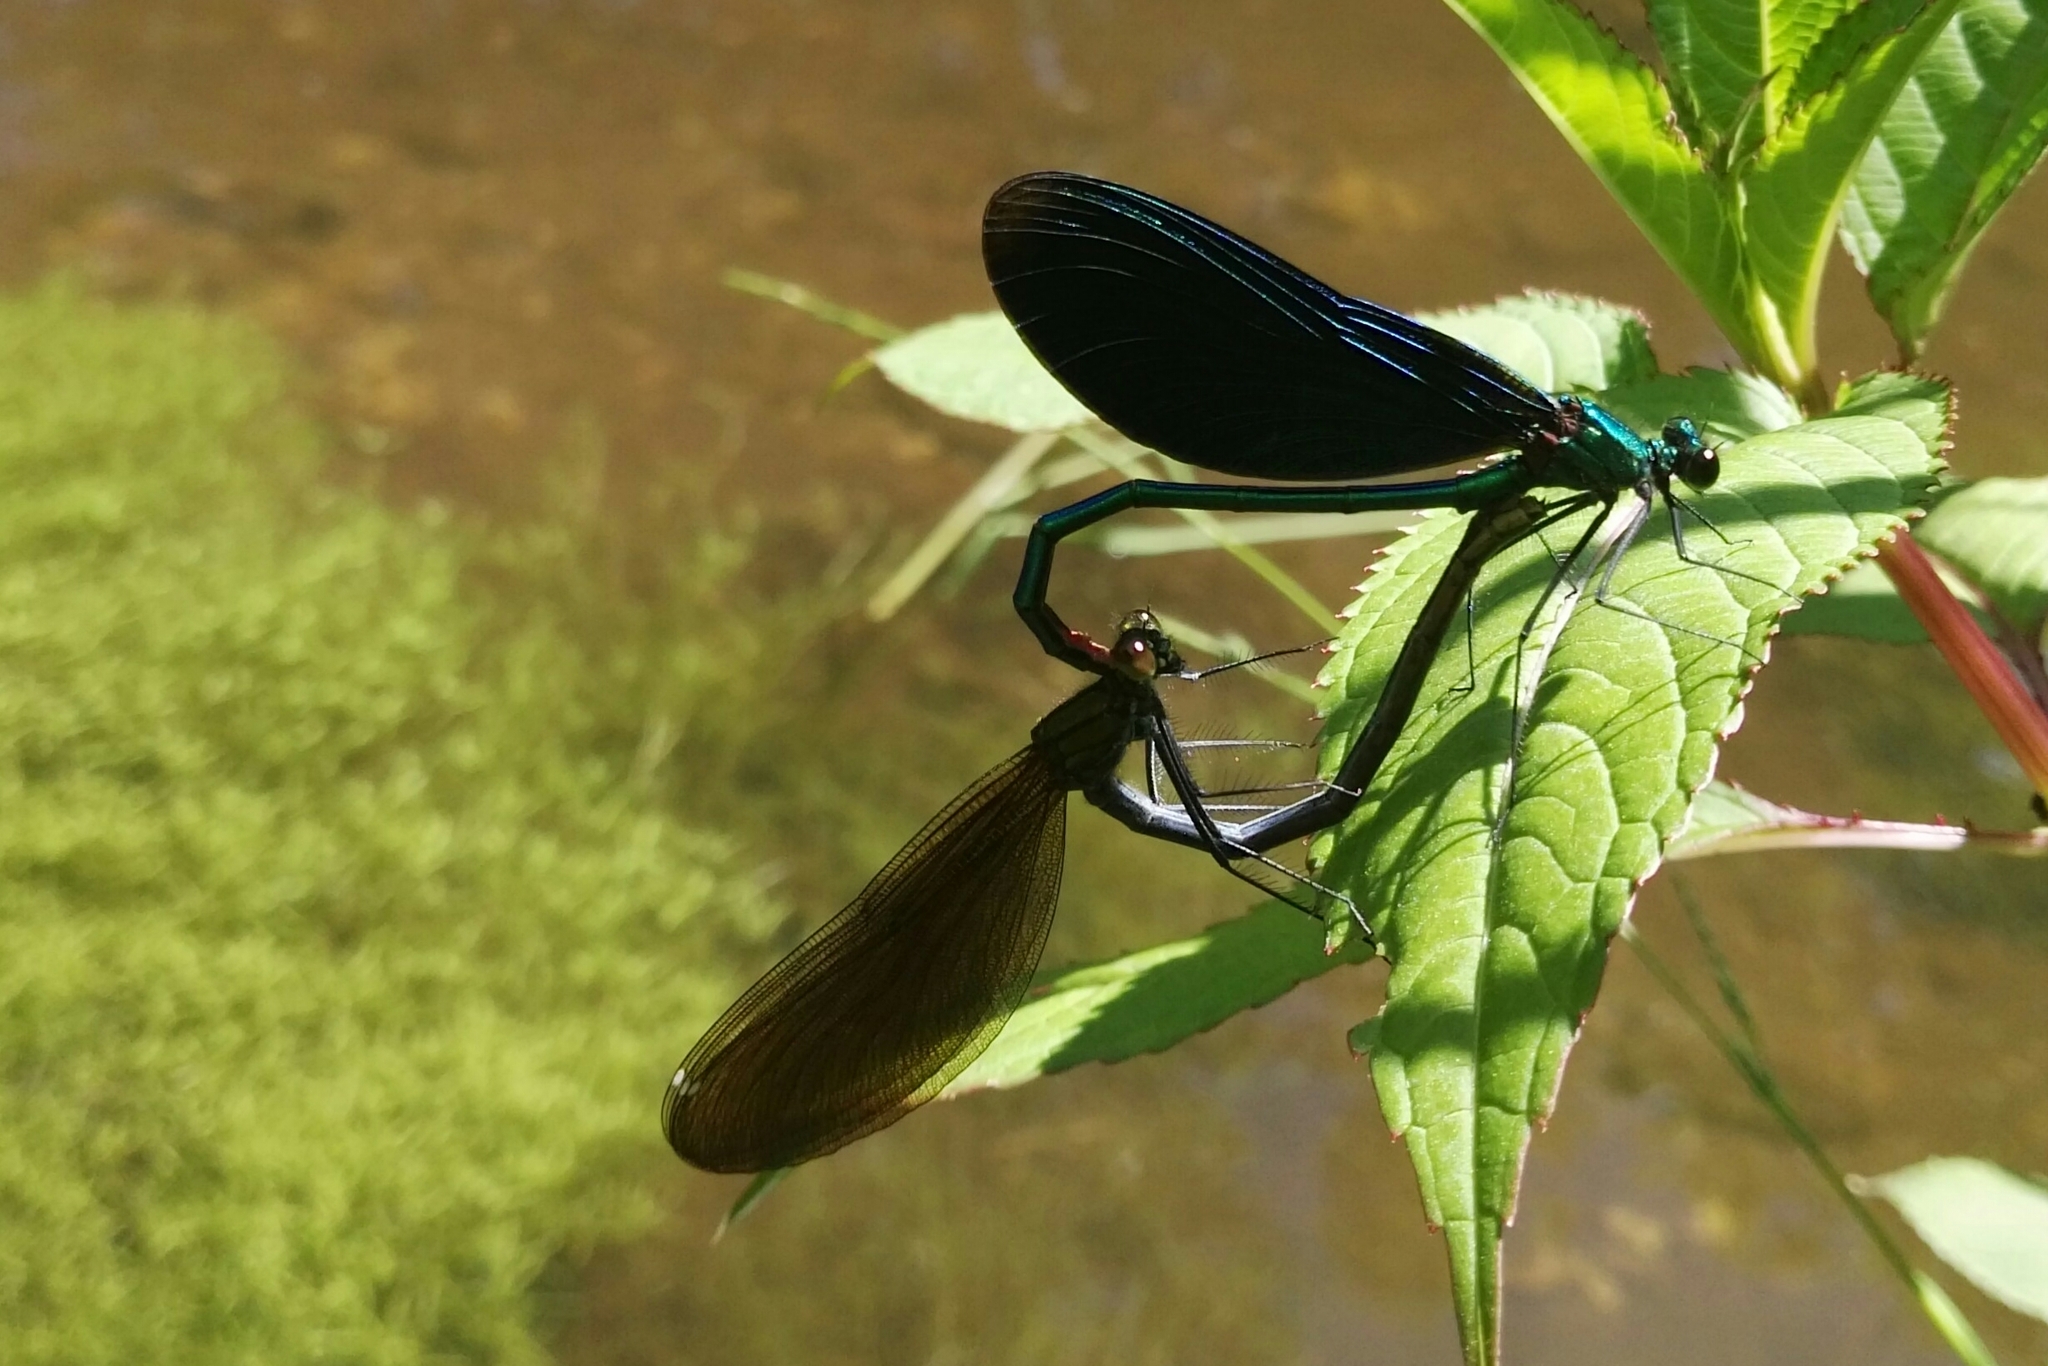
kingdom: Animalia
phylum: Arthropoda
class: Insecta
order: Odonata
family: Calopterygidae
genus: Calopteryx
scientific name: Calopteryx virgo
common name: Beautiful demoiselle
